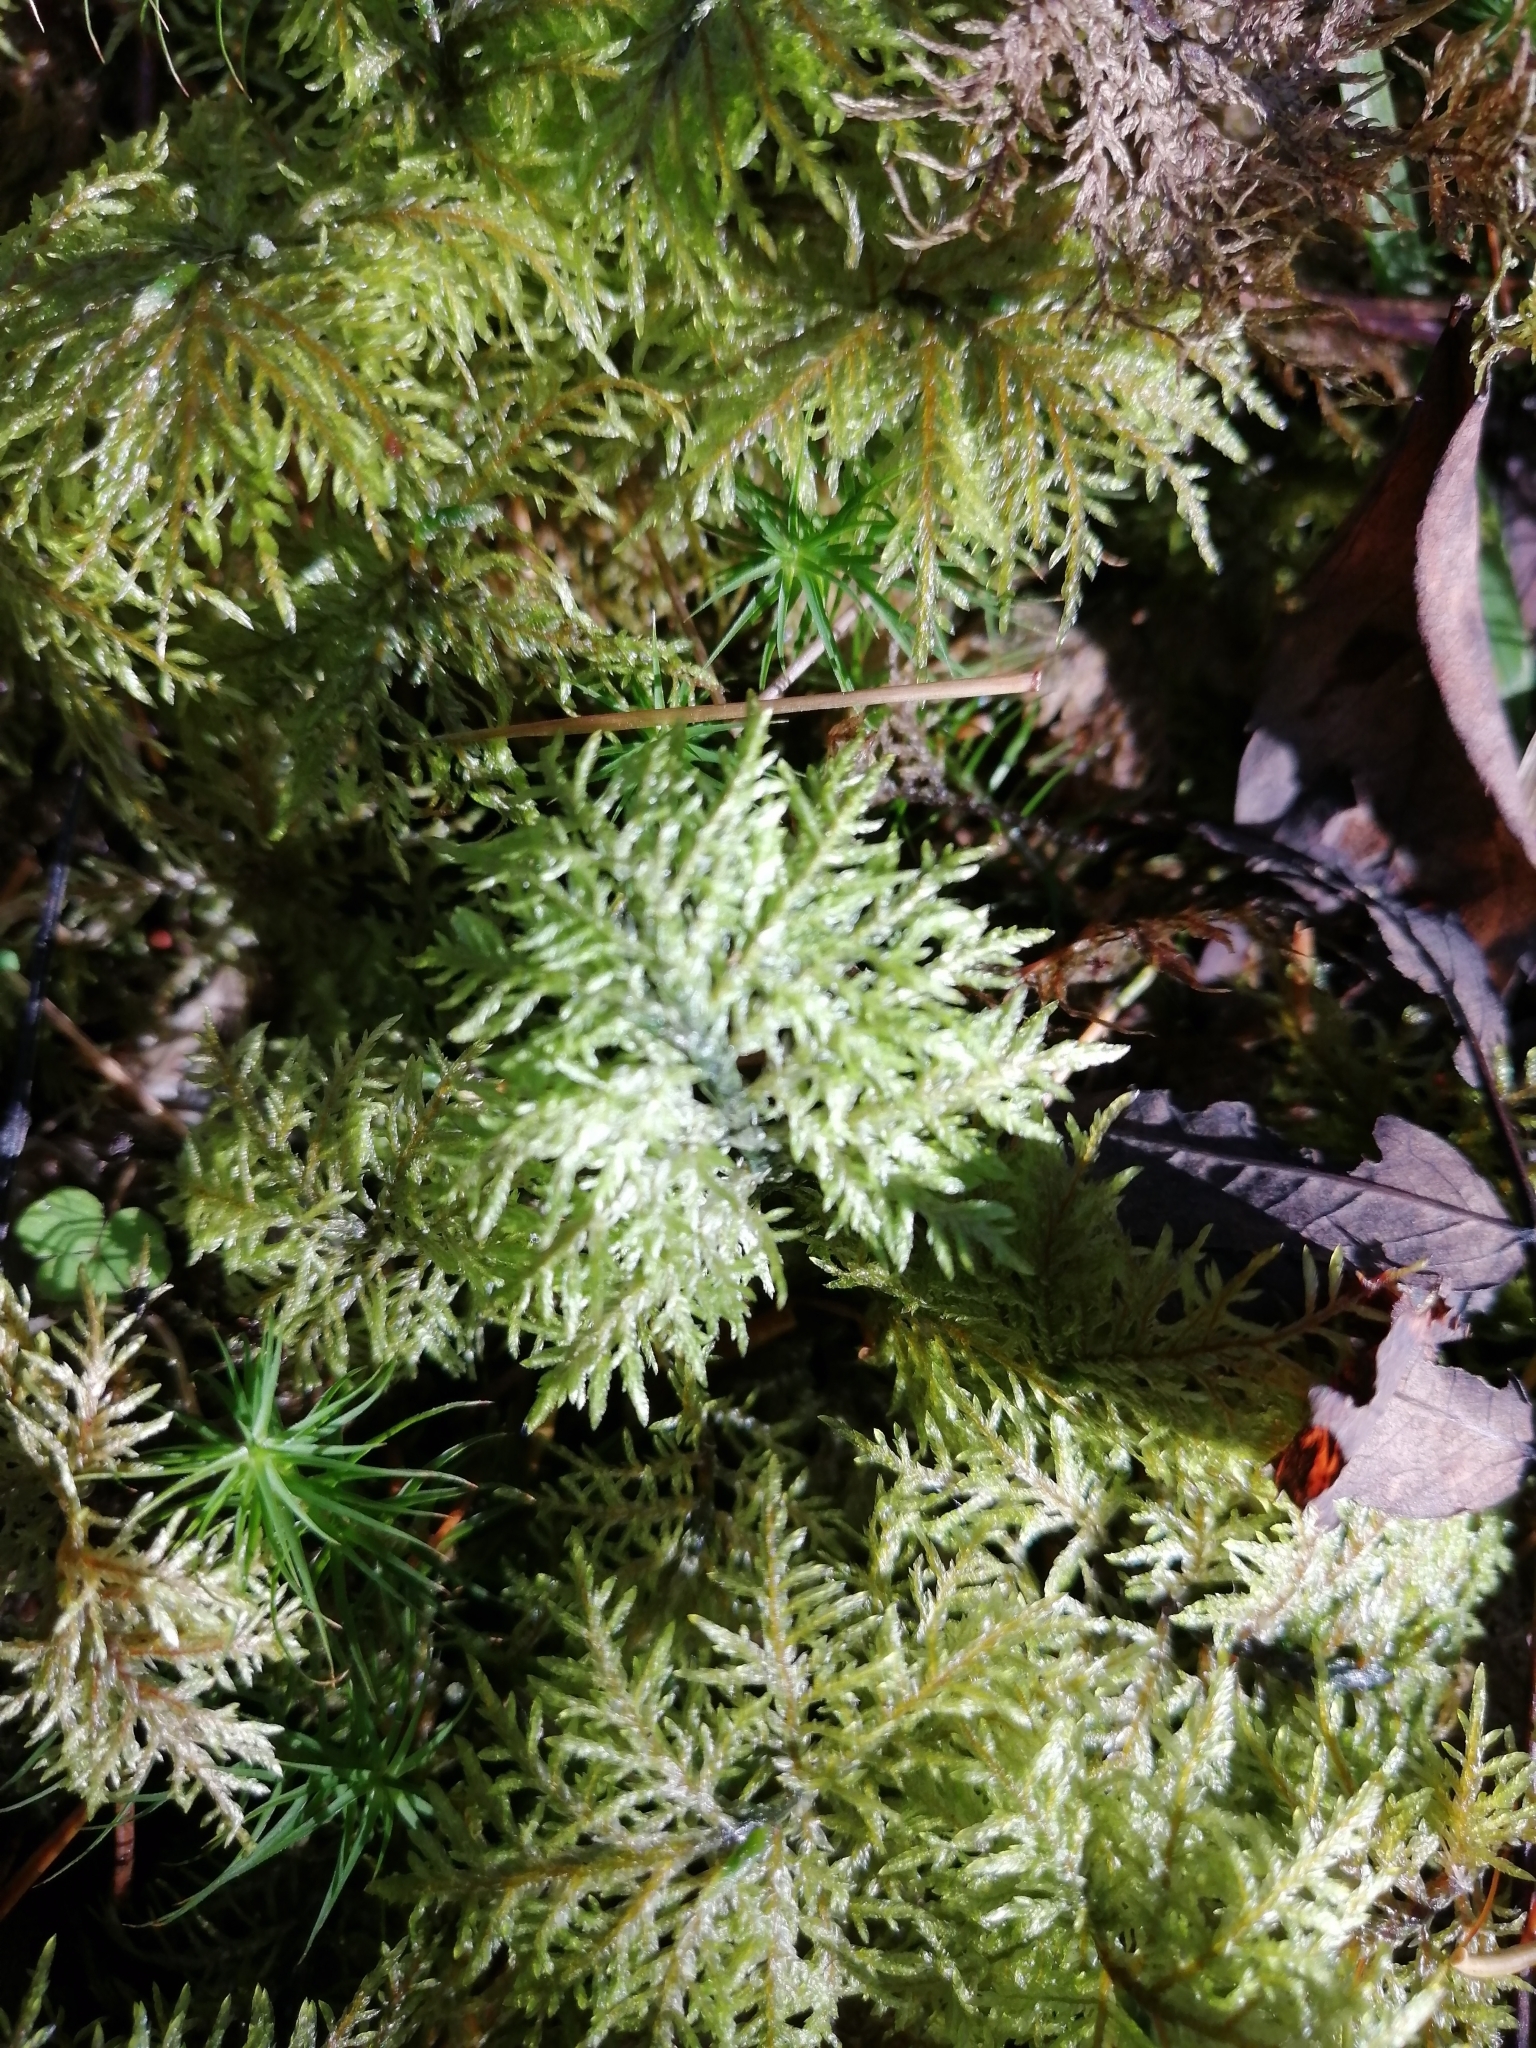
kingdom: Plantae
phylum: Bryophyta
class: Bryopsida
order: Hypnales
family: Hylocomiaceae
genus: Hylocomium
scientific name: Hylocomium splendens
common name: Stairstep moss
